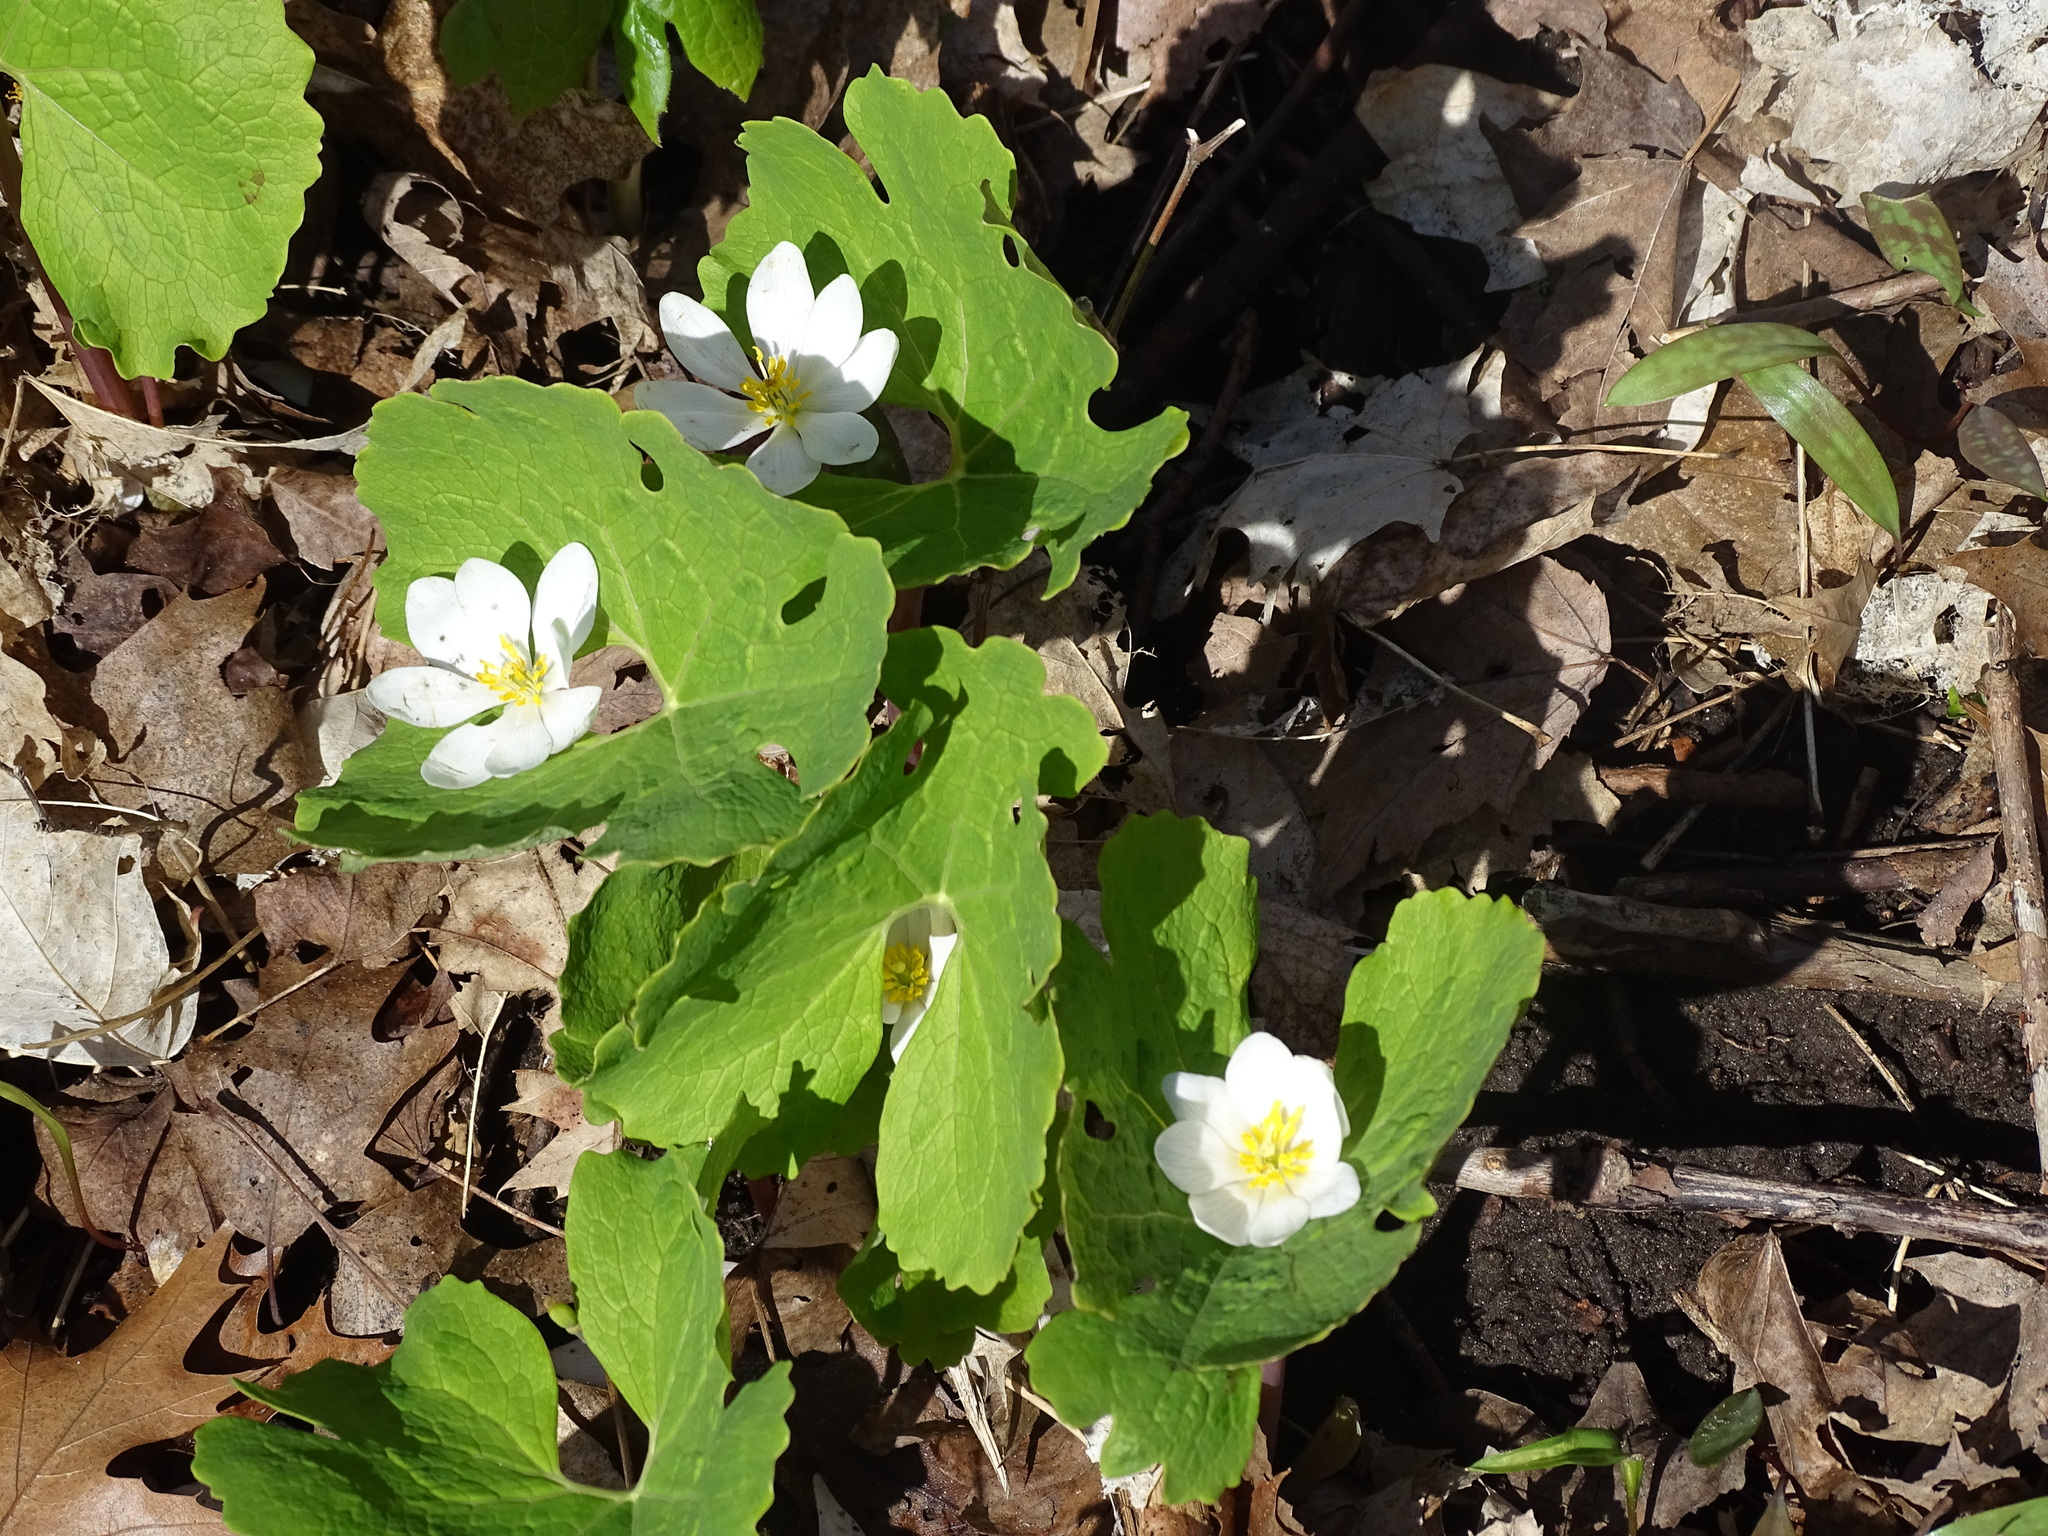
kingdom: Plantae
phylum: Tracheophyta
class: Magnoliopsida
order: Ranunculales
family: Papaveraceae
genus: Sanguinaria
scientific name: Sanguinaria canadensis
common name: Bloodroot
